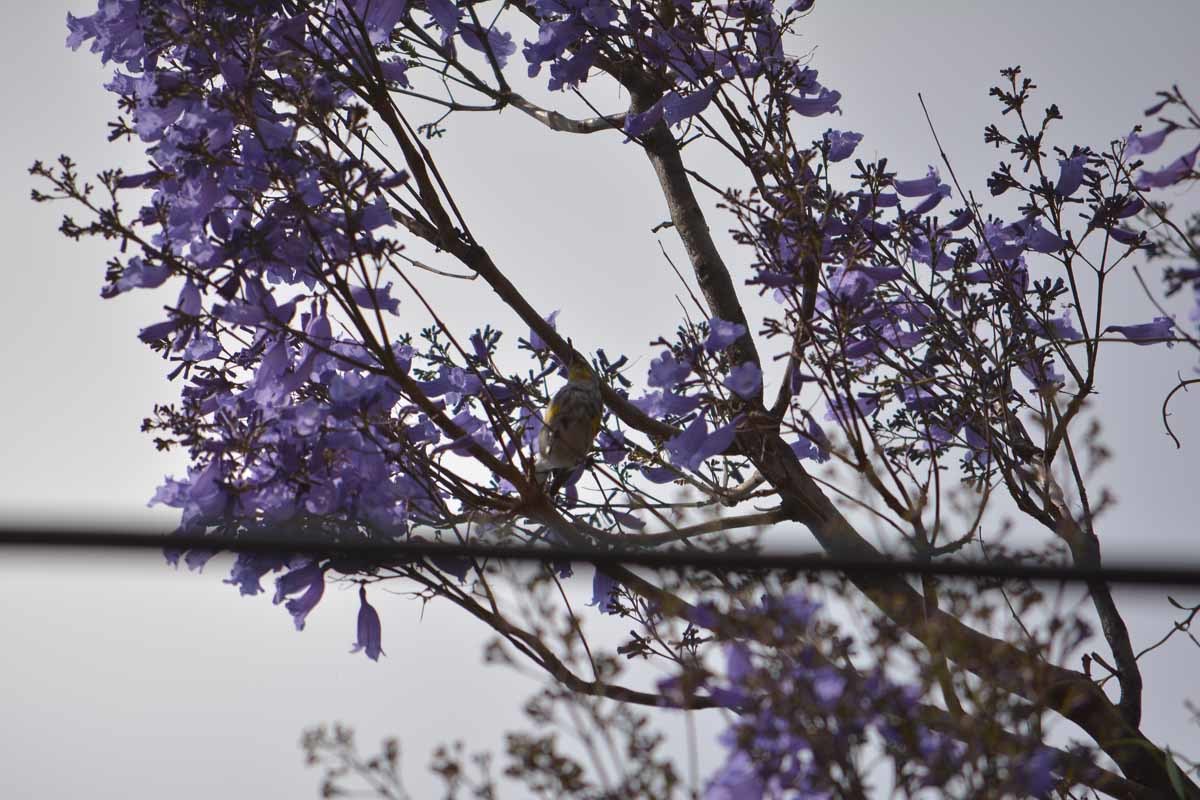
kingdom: Animalia
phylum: Chordata
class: Aves
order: Passeriformes
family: Parulidae
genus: Setophaga
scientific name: Setophaga coronata
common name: Myrtle warbler
